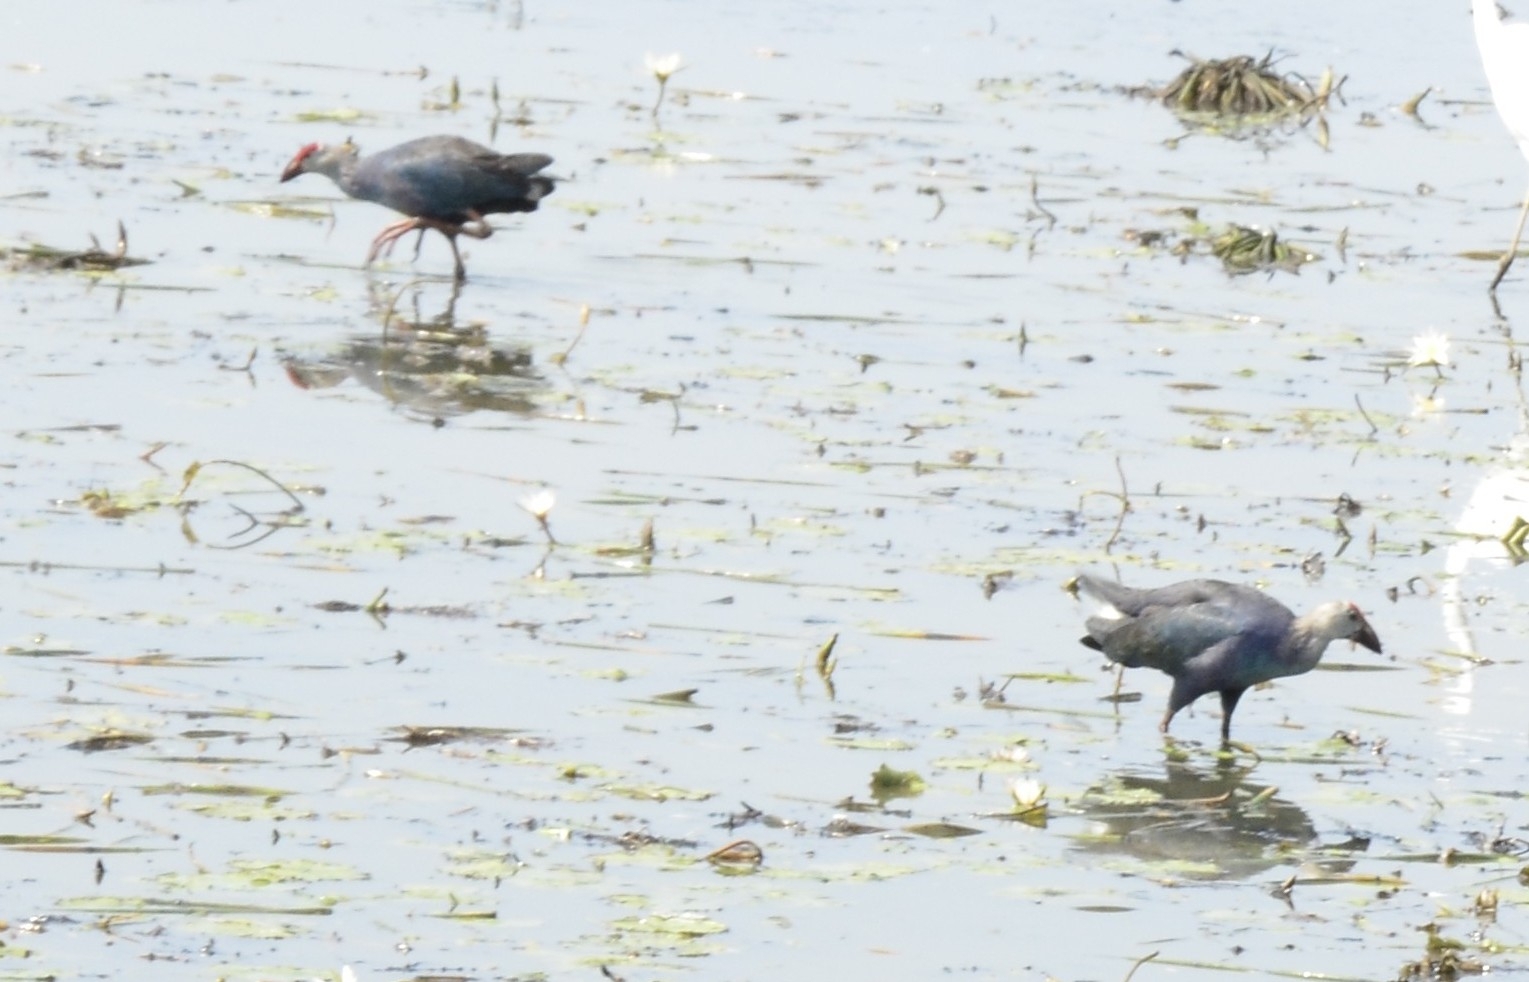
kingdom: Animalia
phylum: Chordata
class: Aves
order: Gruiformes
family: Rallidae
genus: Porphyrio
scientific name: Porphyrio porphyrio
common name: Purple swamphen
